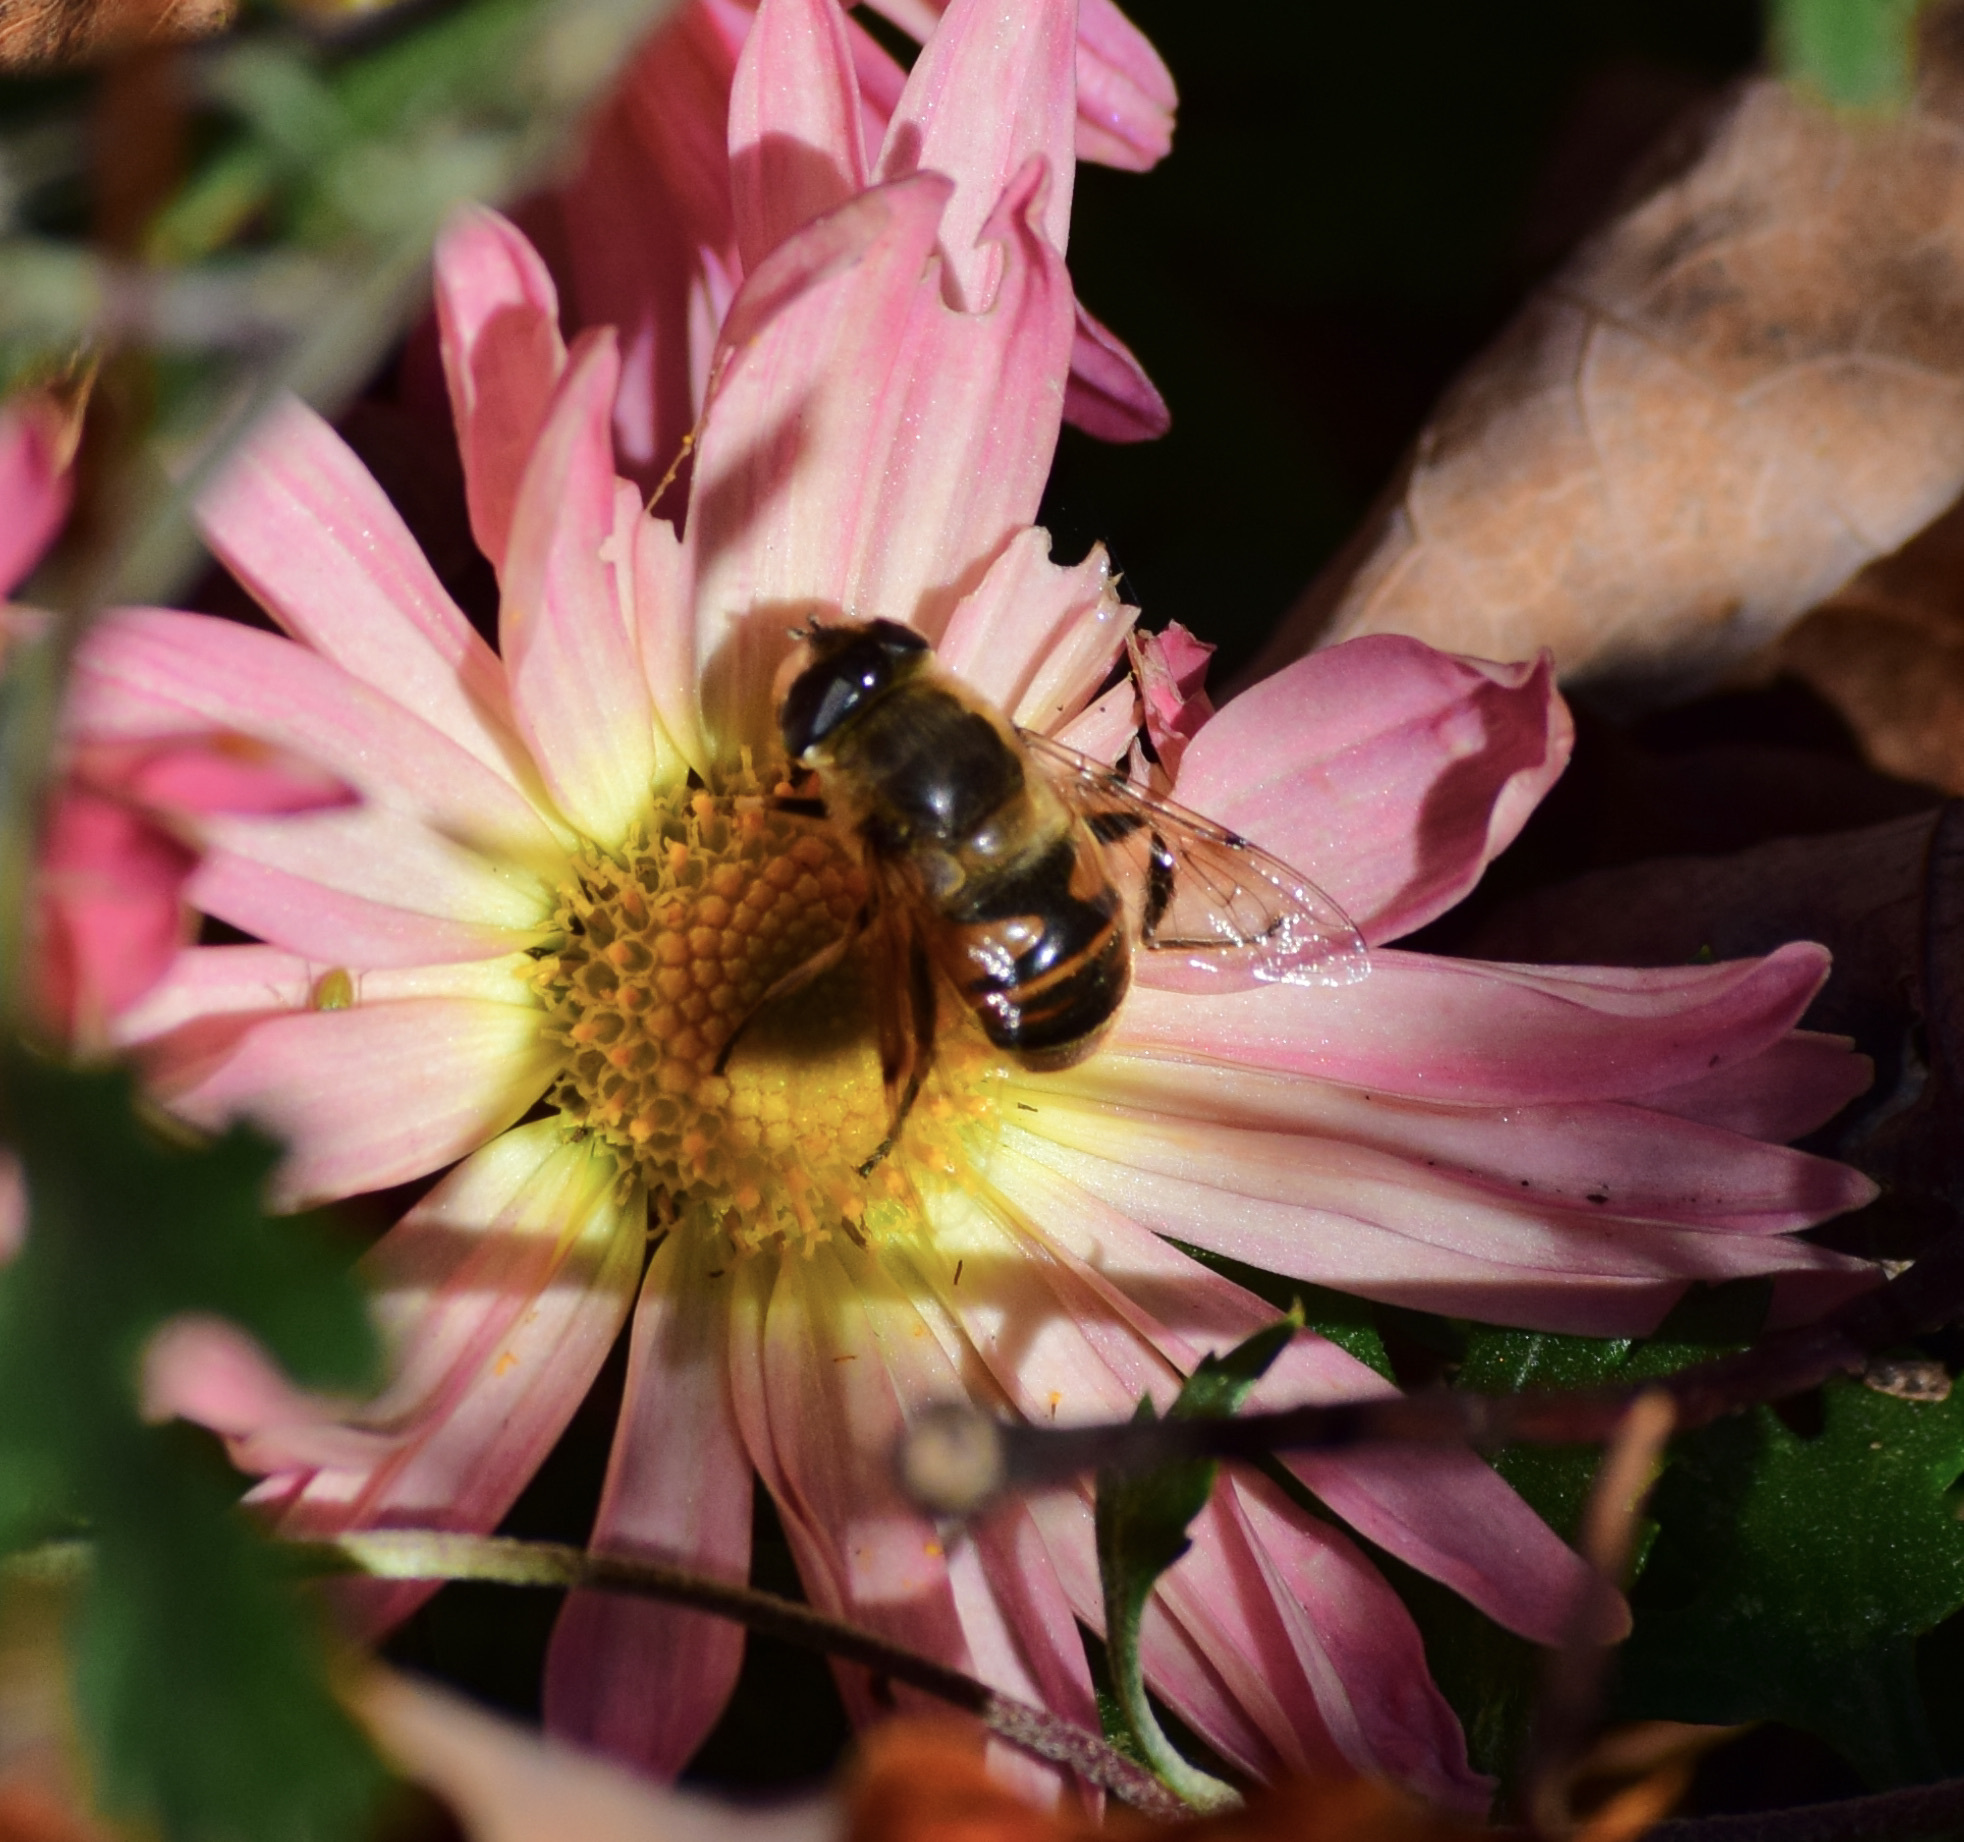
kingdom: Animalia
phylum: Arthropoda
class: Insecta
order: Diptera
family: Syrphidae
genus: Eristalis
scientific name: Eristalis tenax
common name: Drone fly
